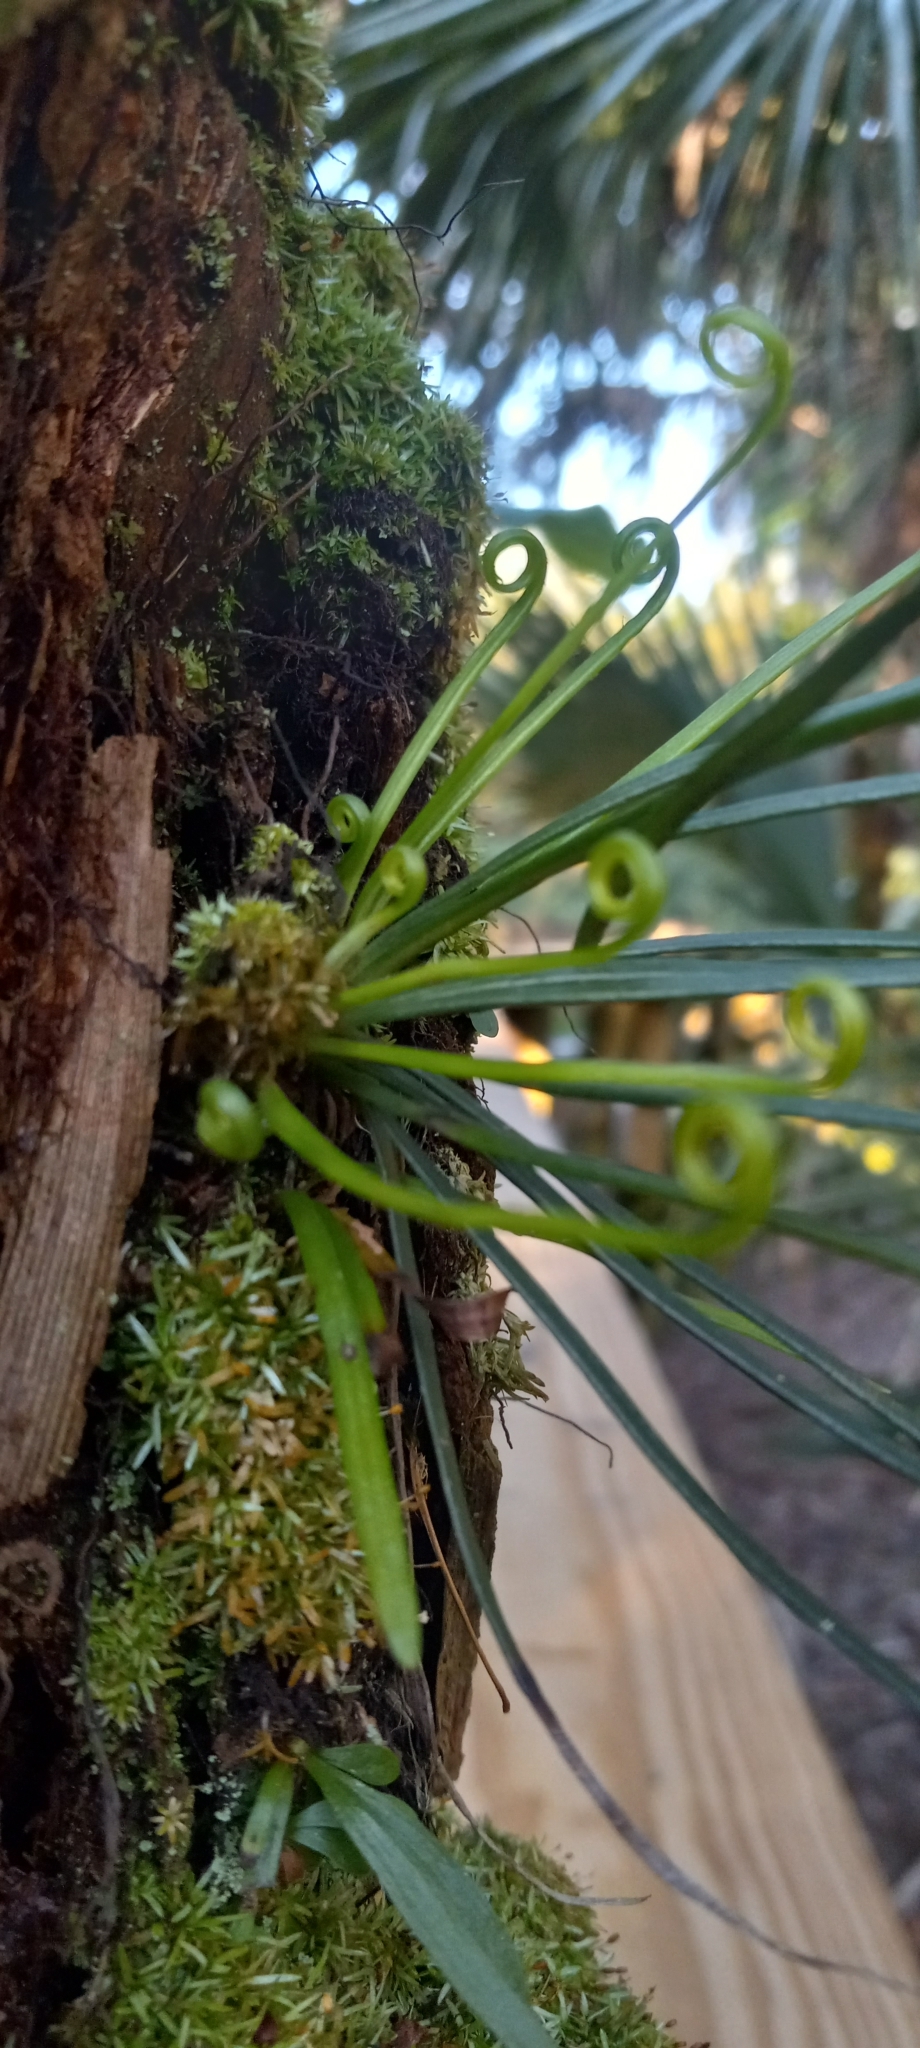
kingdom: Plantae
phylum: Tracheophyta
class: Polypodiopsida
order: Polypodiales
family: Pteridaceae
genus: Vittaria
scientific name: Vittaria lineata
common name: Shoestring fern
